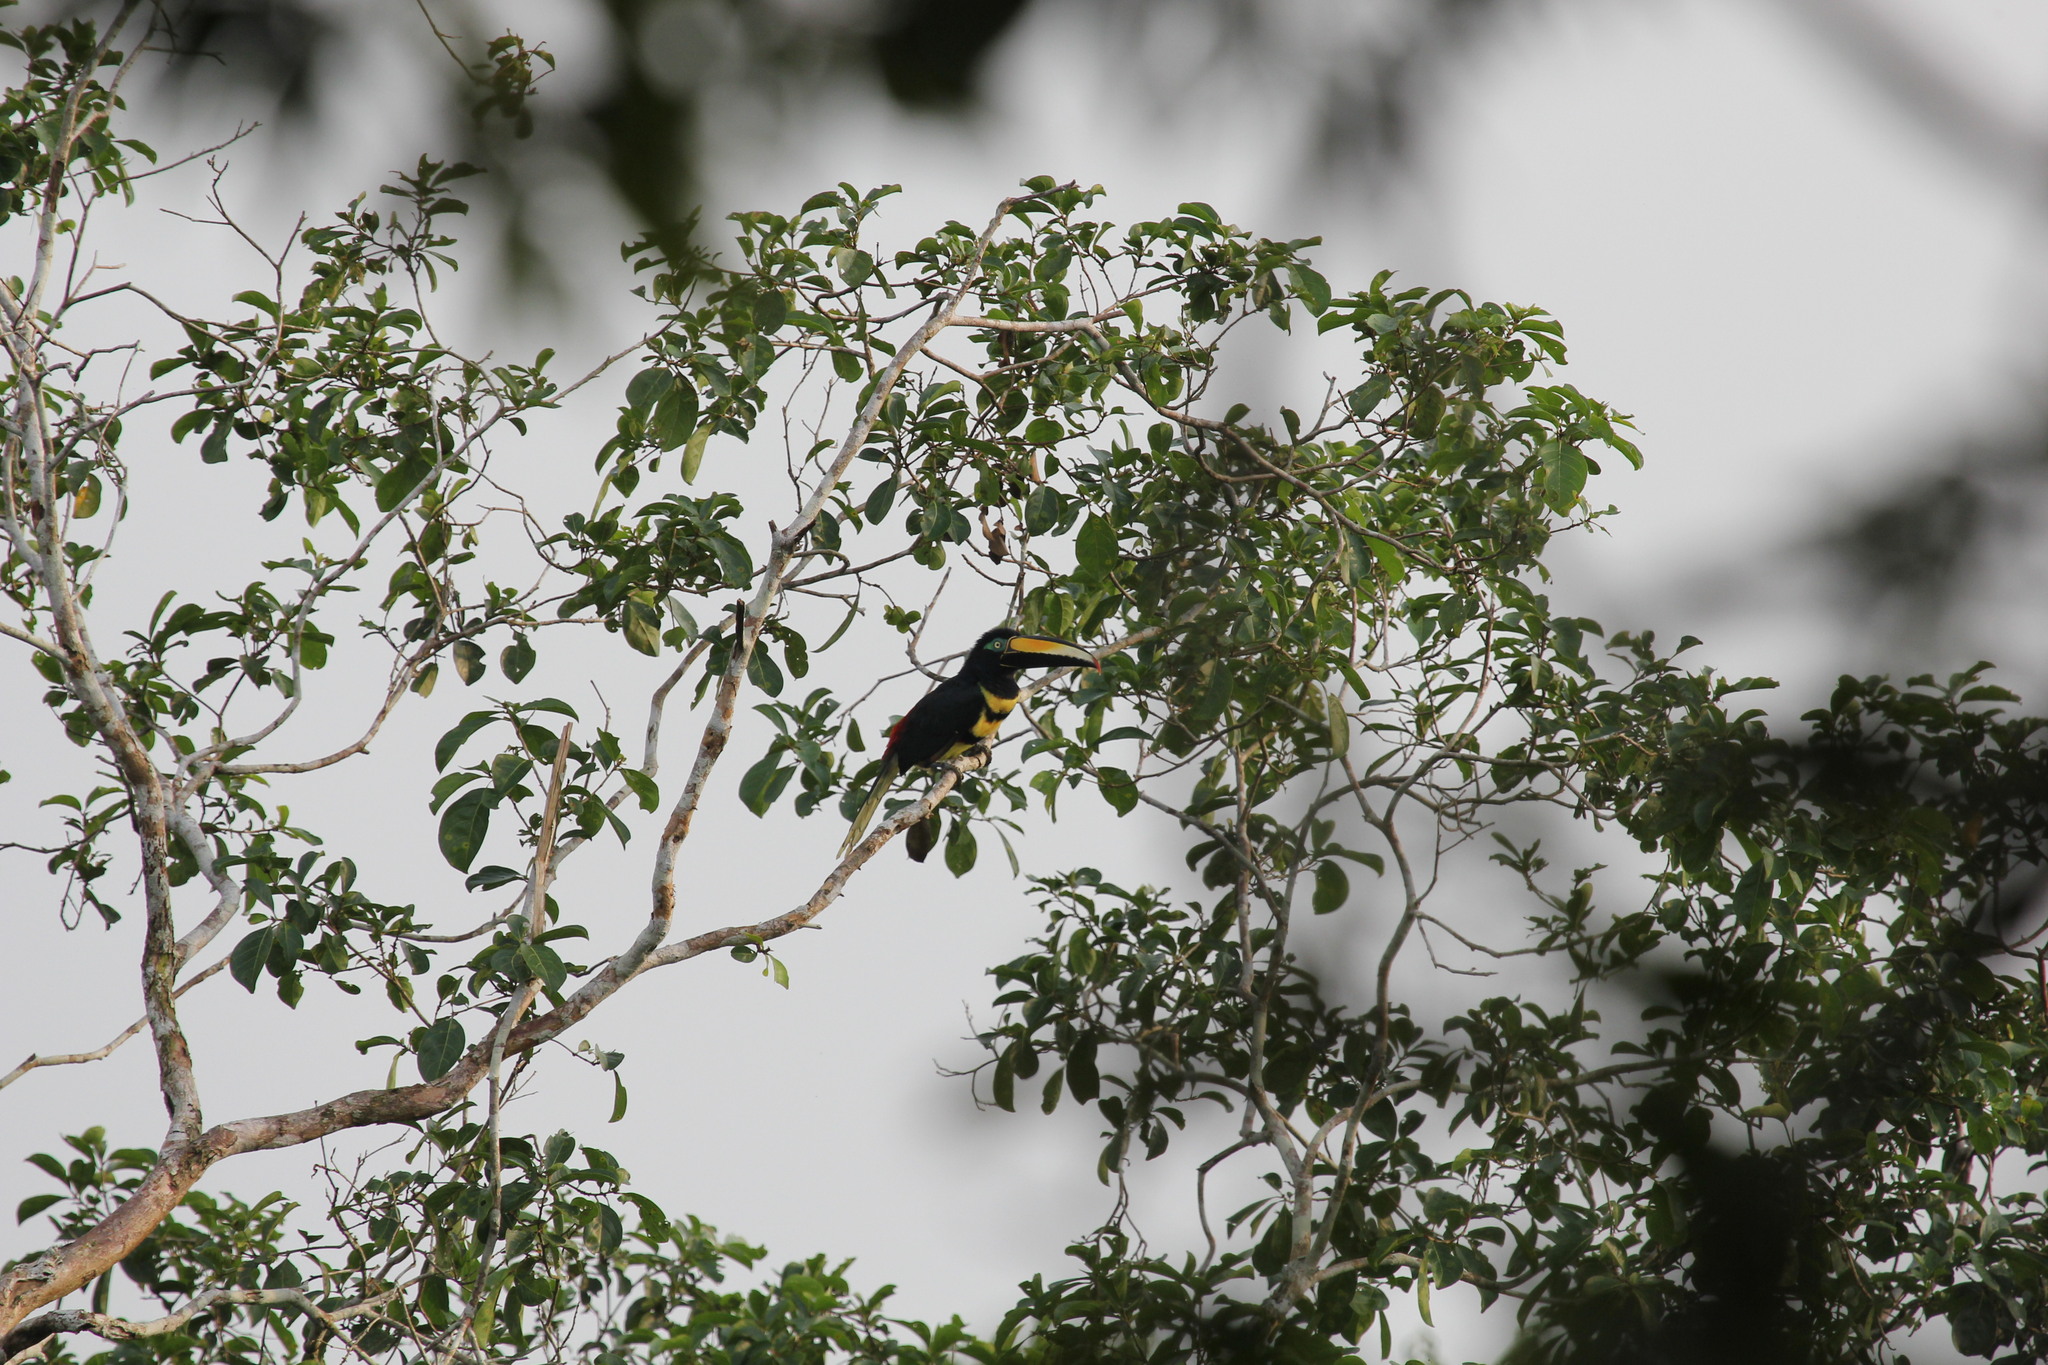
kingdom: Animalia
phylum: Chordata
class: Aves
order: Piciformes
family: Ramphastidae
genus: Pteroglossus
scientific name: Pteroglossus pluricinctus
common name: Many-banded aracari
